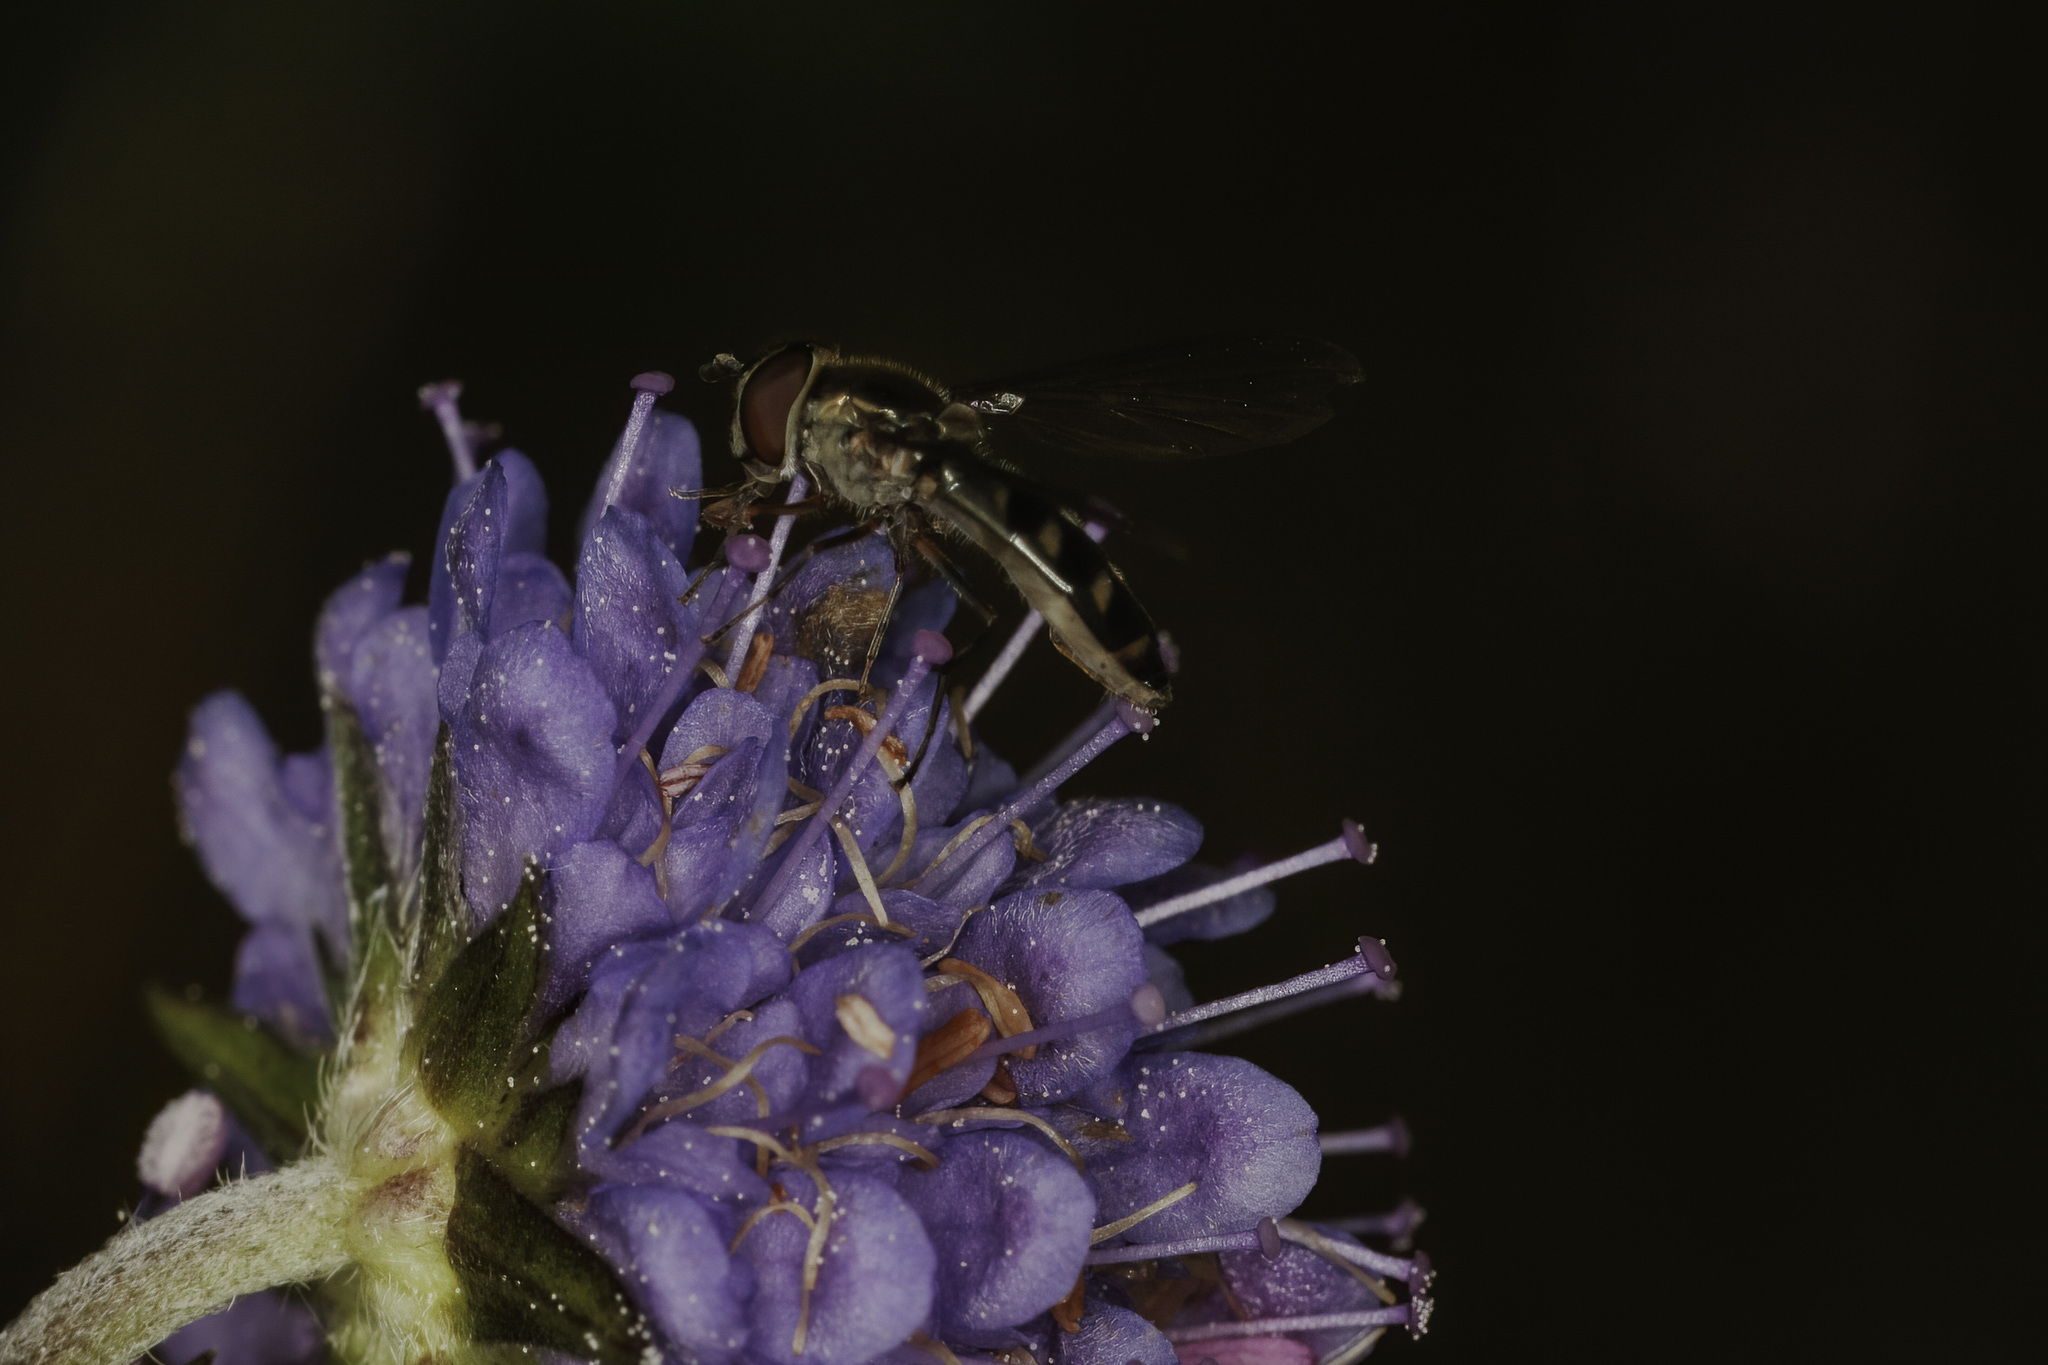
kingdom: Animalia
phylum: Arthropoda
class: Insecta
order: Diptera
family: Syrphidae
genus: Meliscaeva
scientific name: Meliscaeva auricollis
